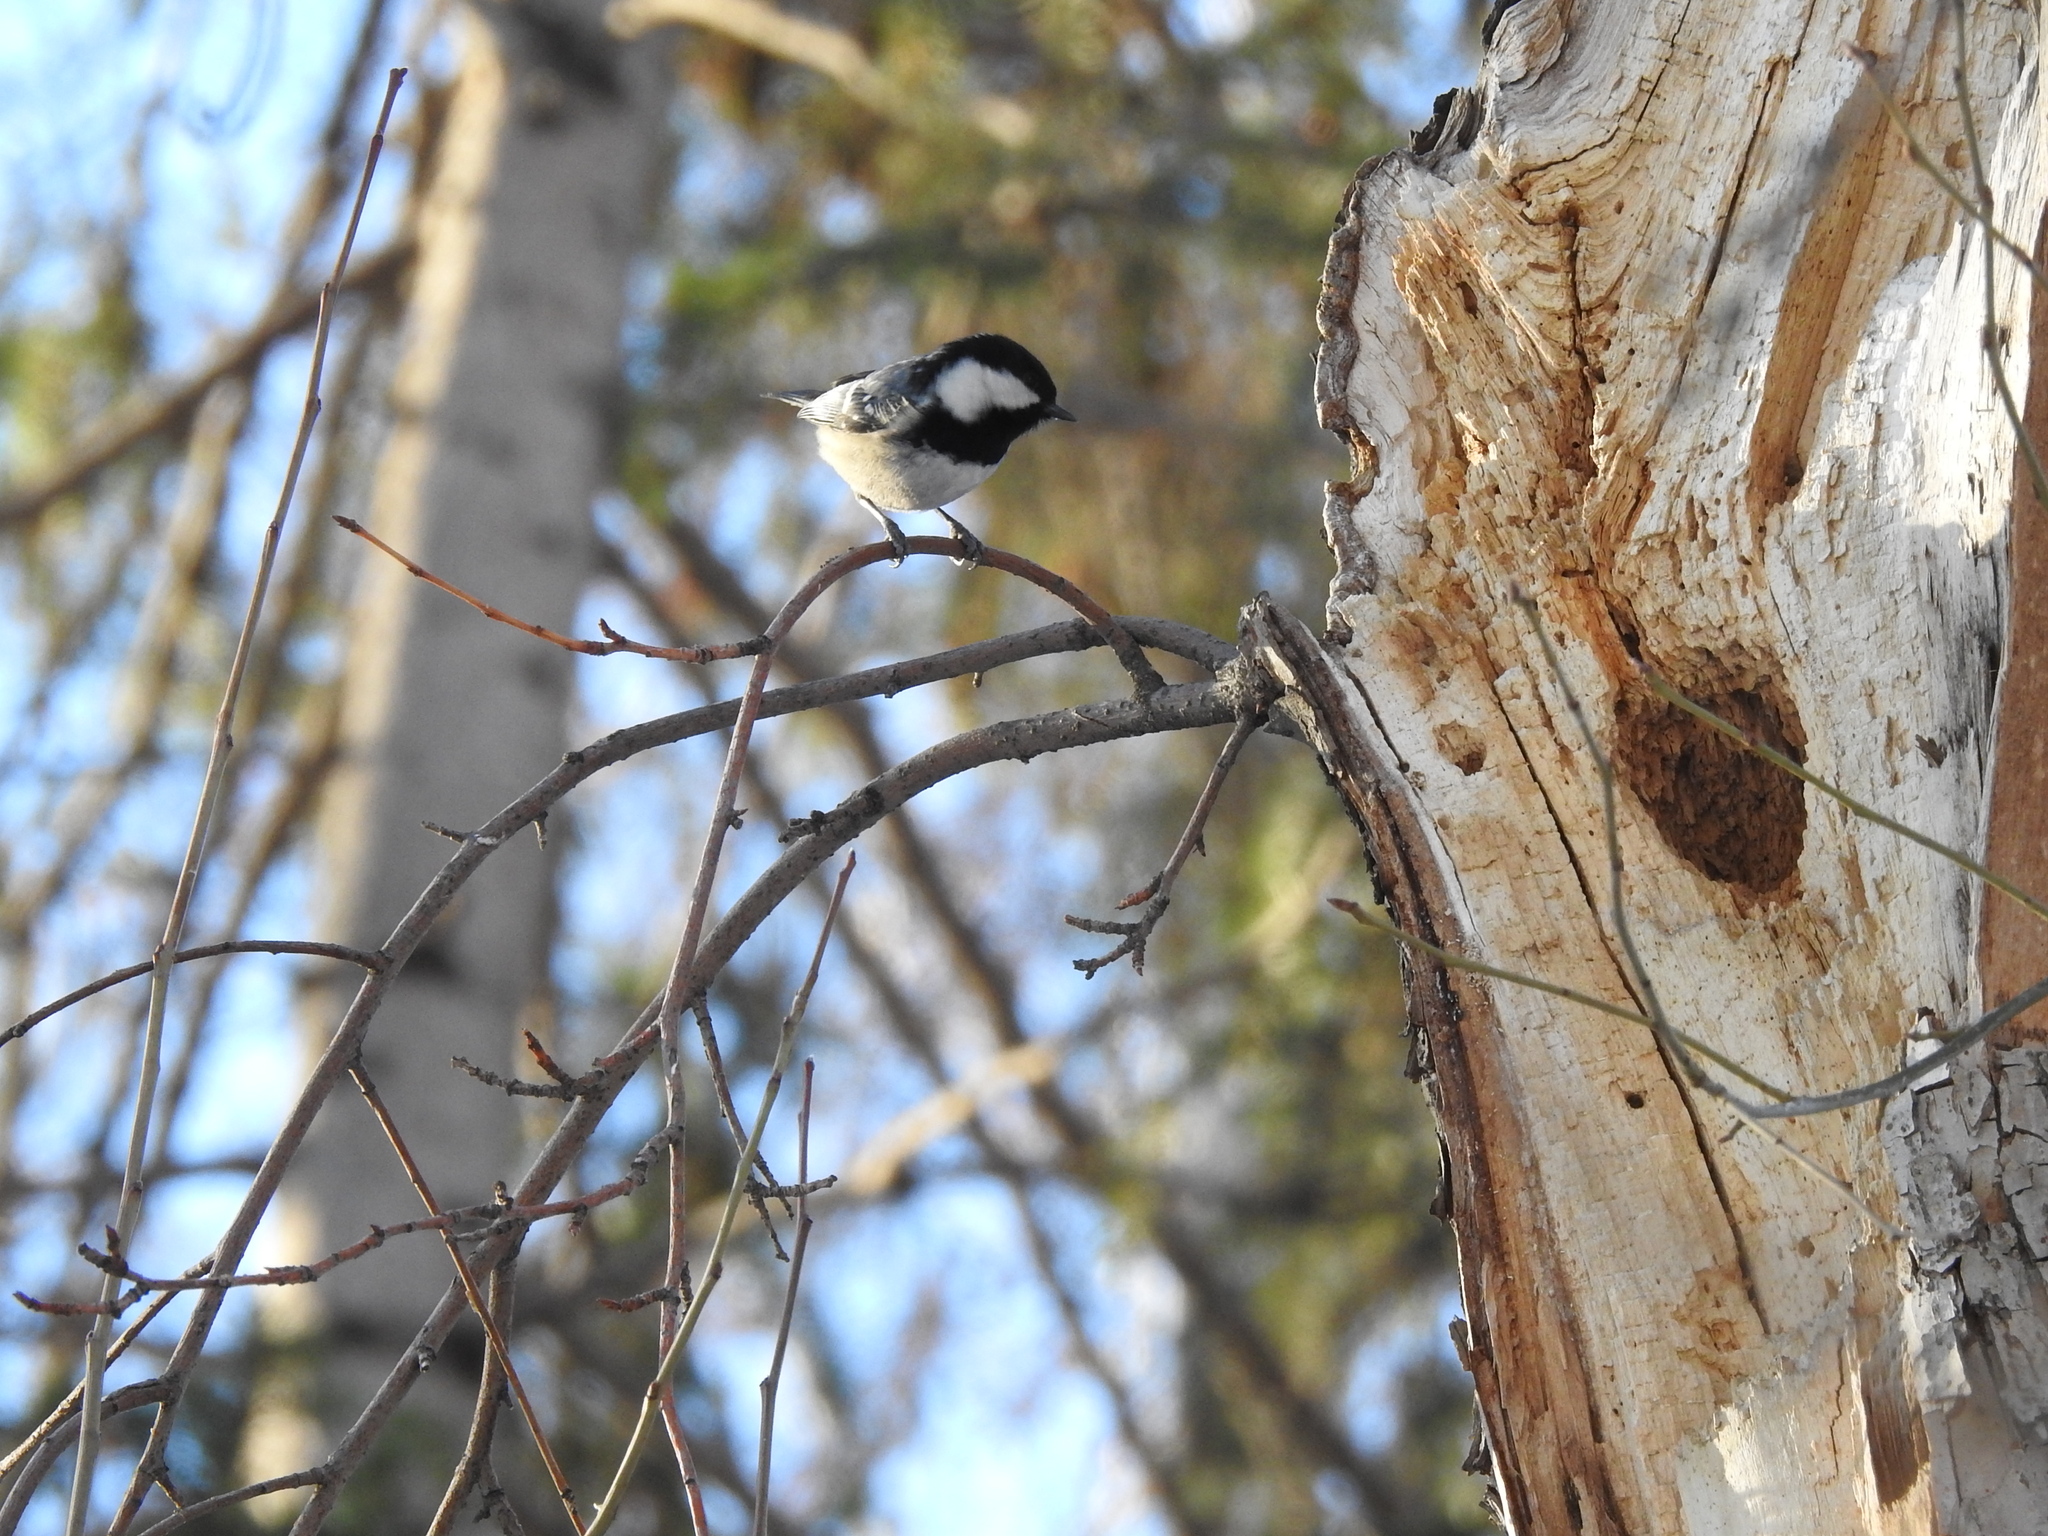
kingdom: Animalia
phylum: Chordata
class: Aves
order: Passeriformes
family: Paridae
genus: Periparus
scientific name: Periparus ater
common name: Coal tit
